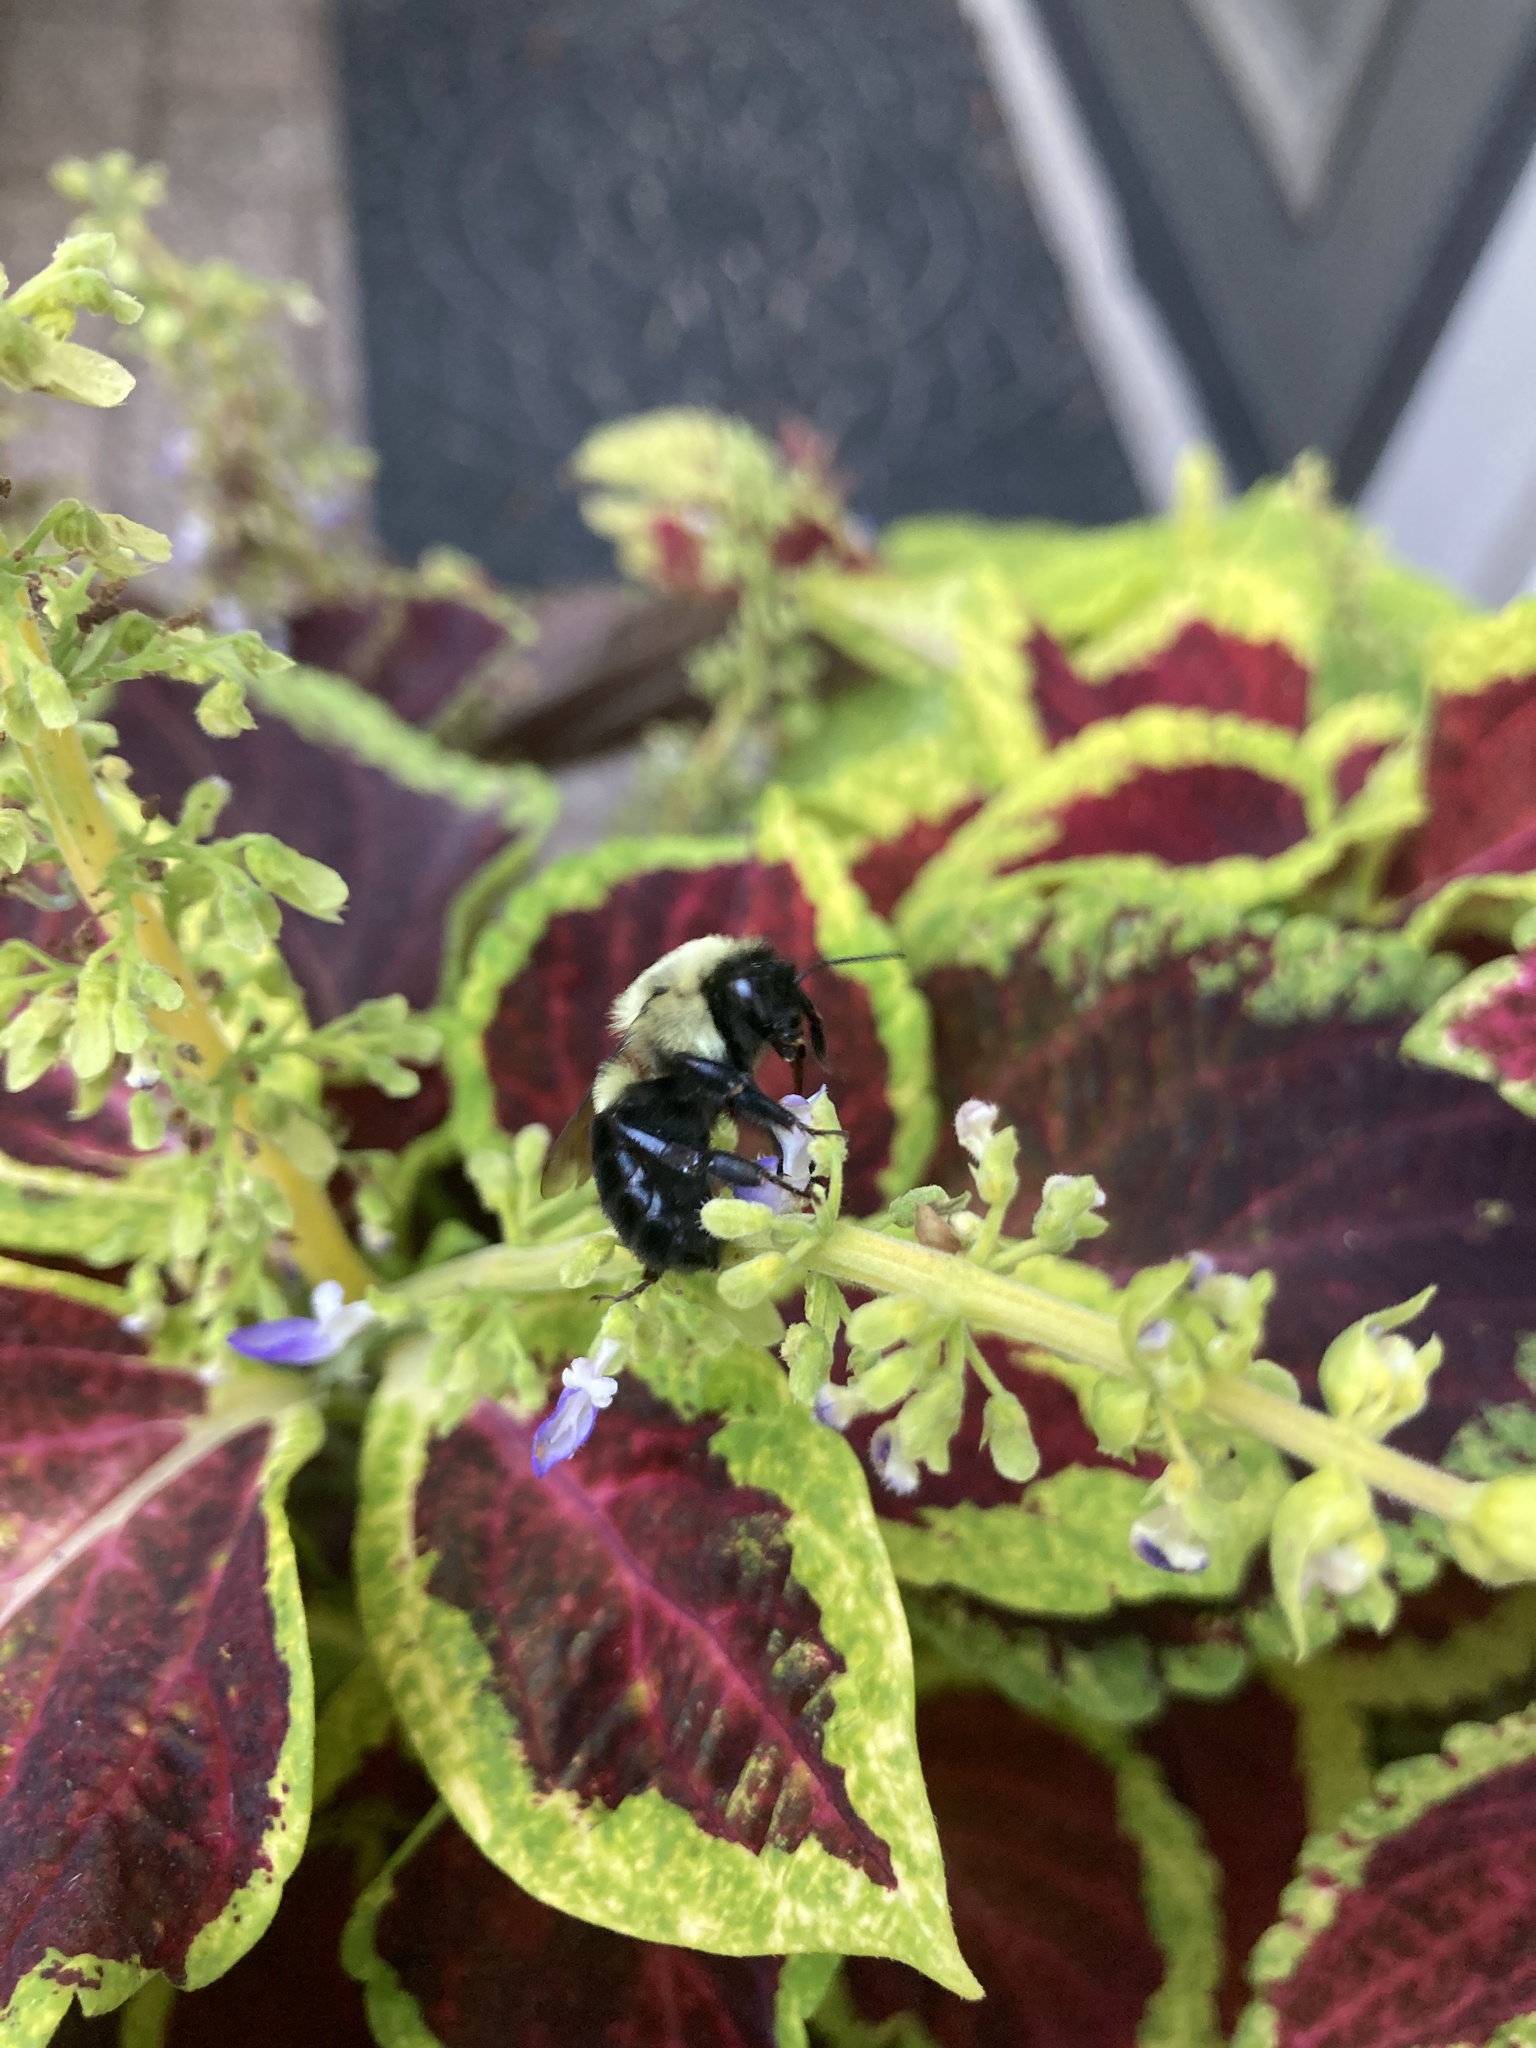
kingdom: Animalia
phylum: Arthropoda
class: Insecta
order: Hymenoptera
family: Apidae
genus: Bombus
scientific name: Bombus impatiens
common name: Common eastern bumble bee
